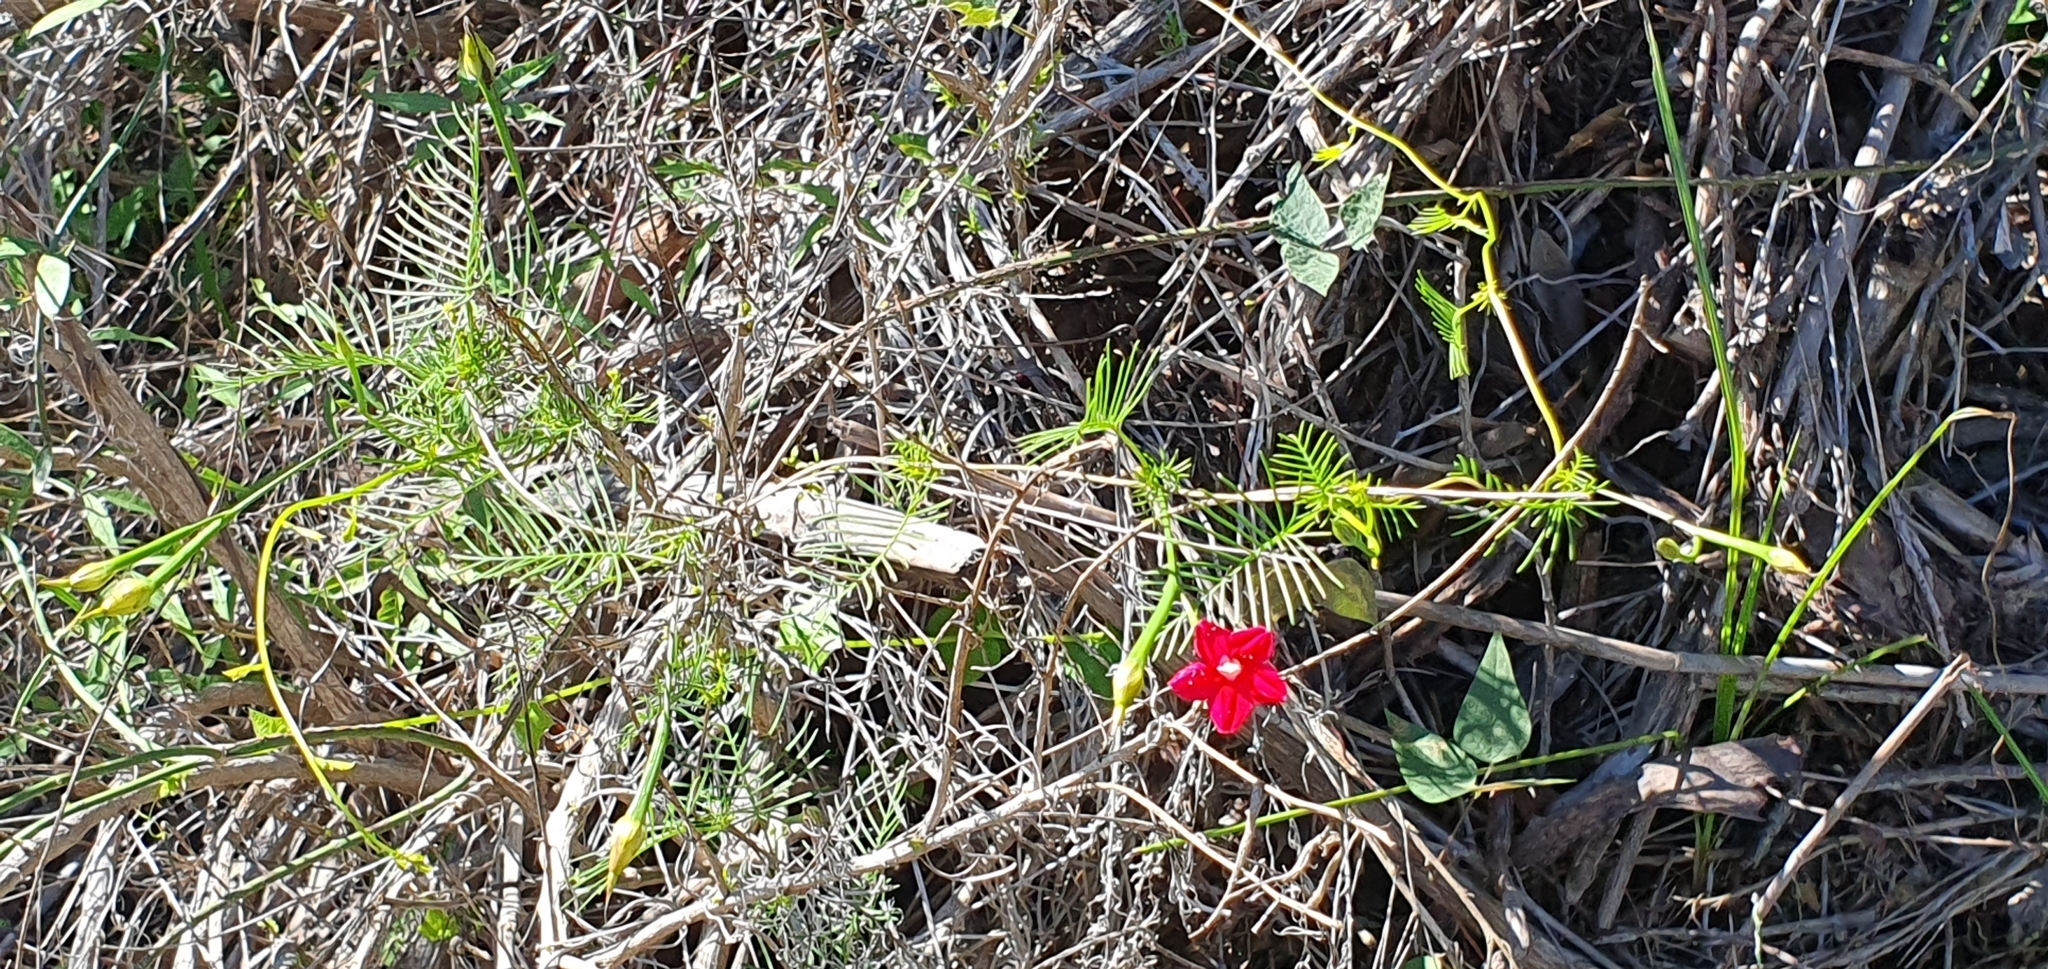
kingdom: Plantae
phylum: Tracheophyta
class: Magnoliopsida
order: Solanales
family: Convolvulaceae
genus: Ipomoea
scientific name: Ipomoea quamoclit
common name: Cypress vine
